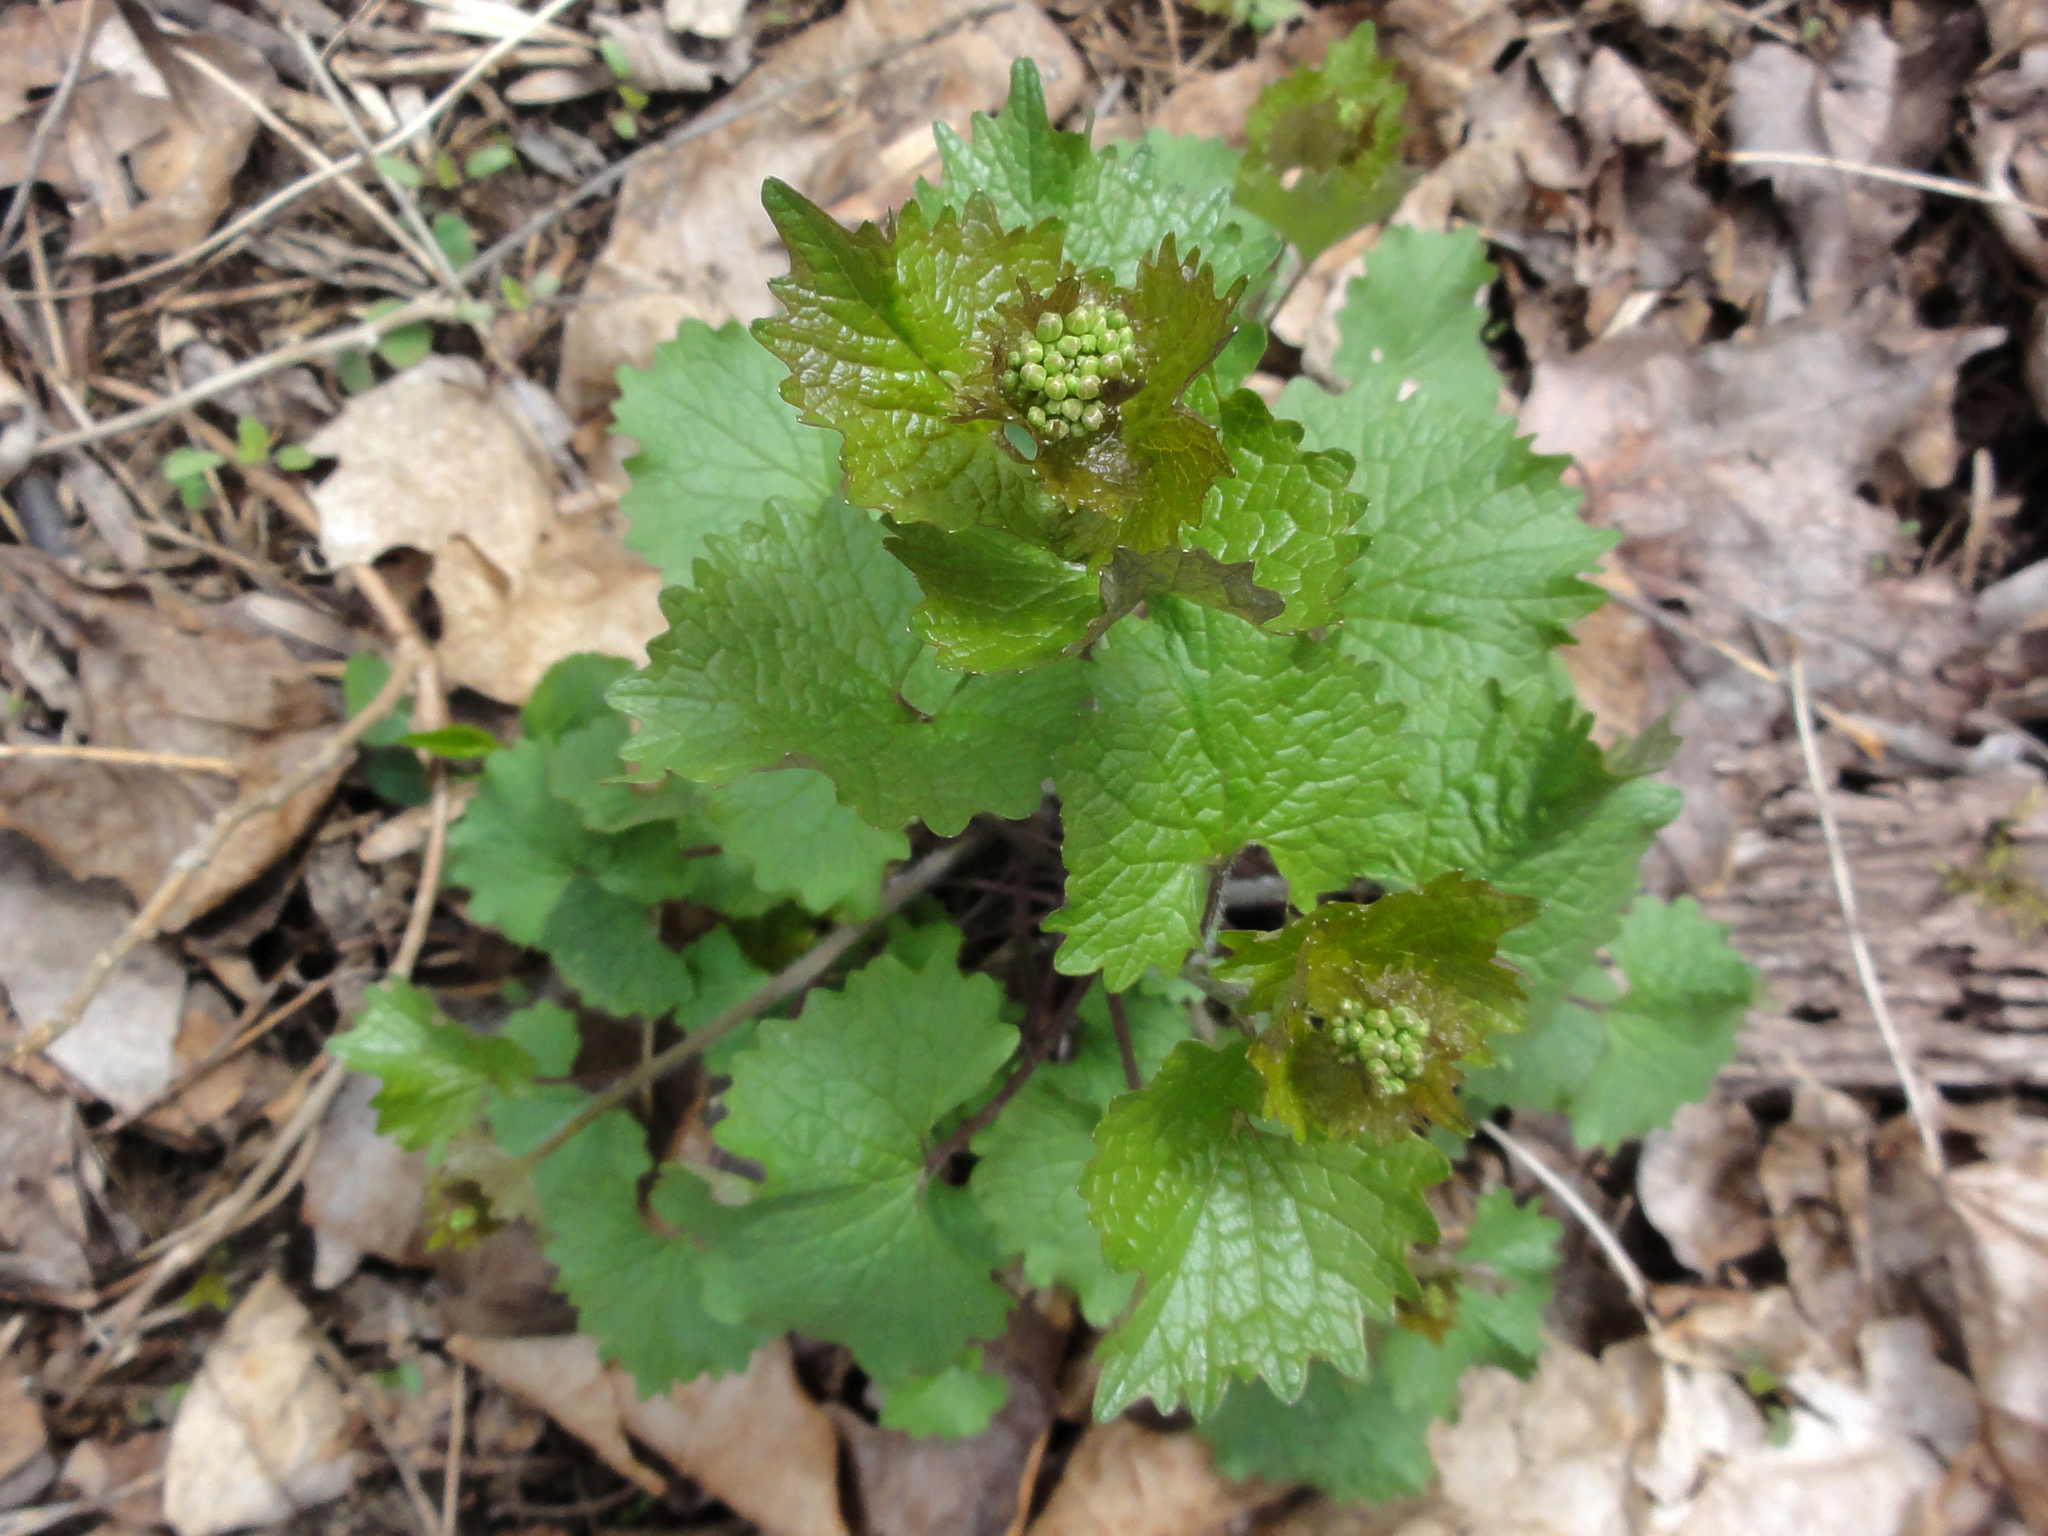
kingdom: Plantae
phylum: Tracheophyta
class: Magnoliopsida
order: Brassicales
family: Brassicaceae
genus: Alliaria
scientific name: Alliaria petiolata
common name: Garlic mustard
